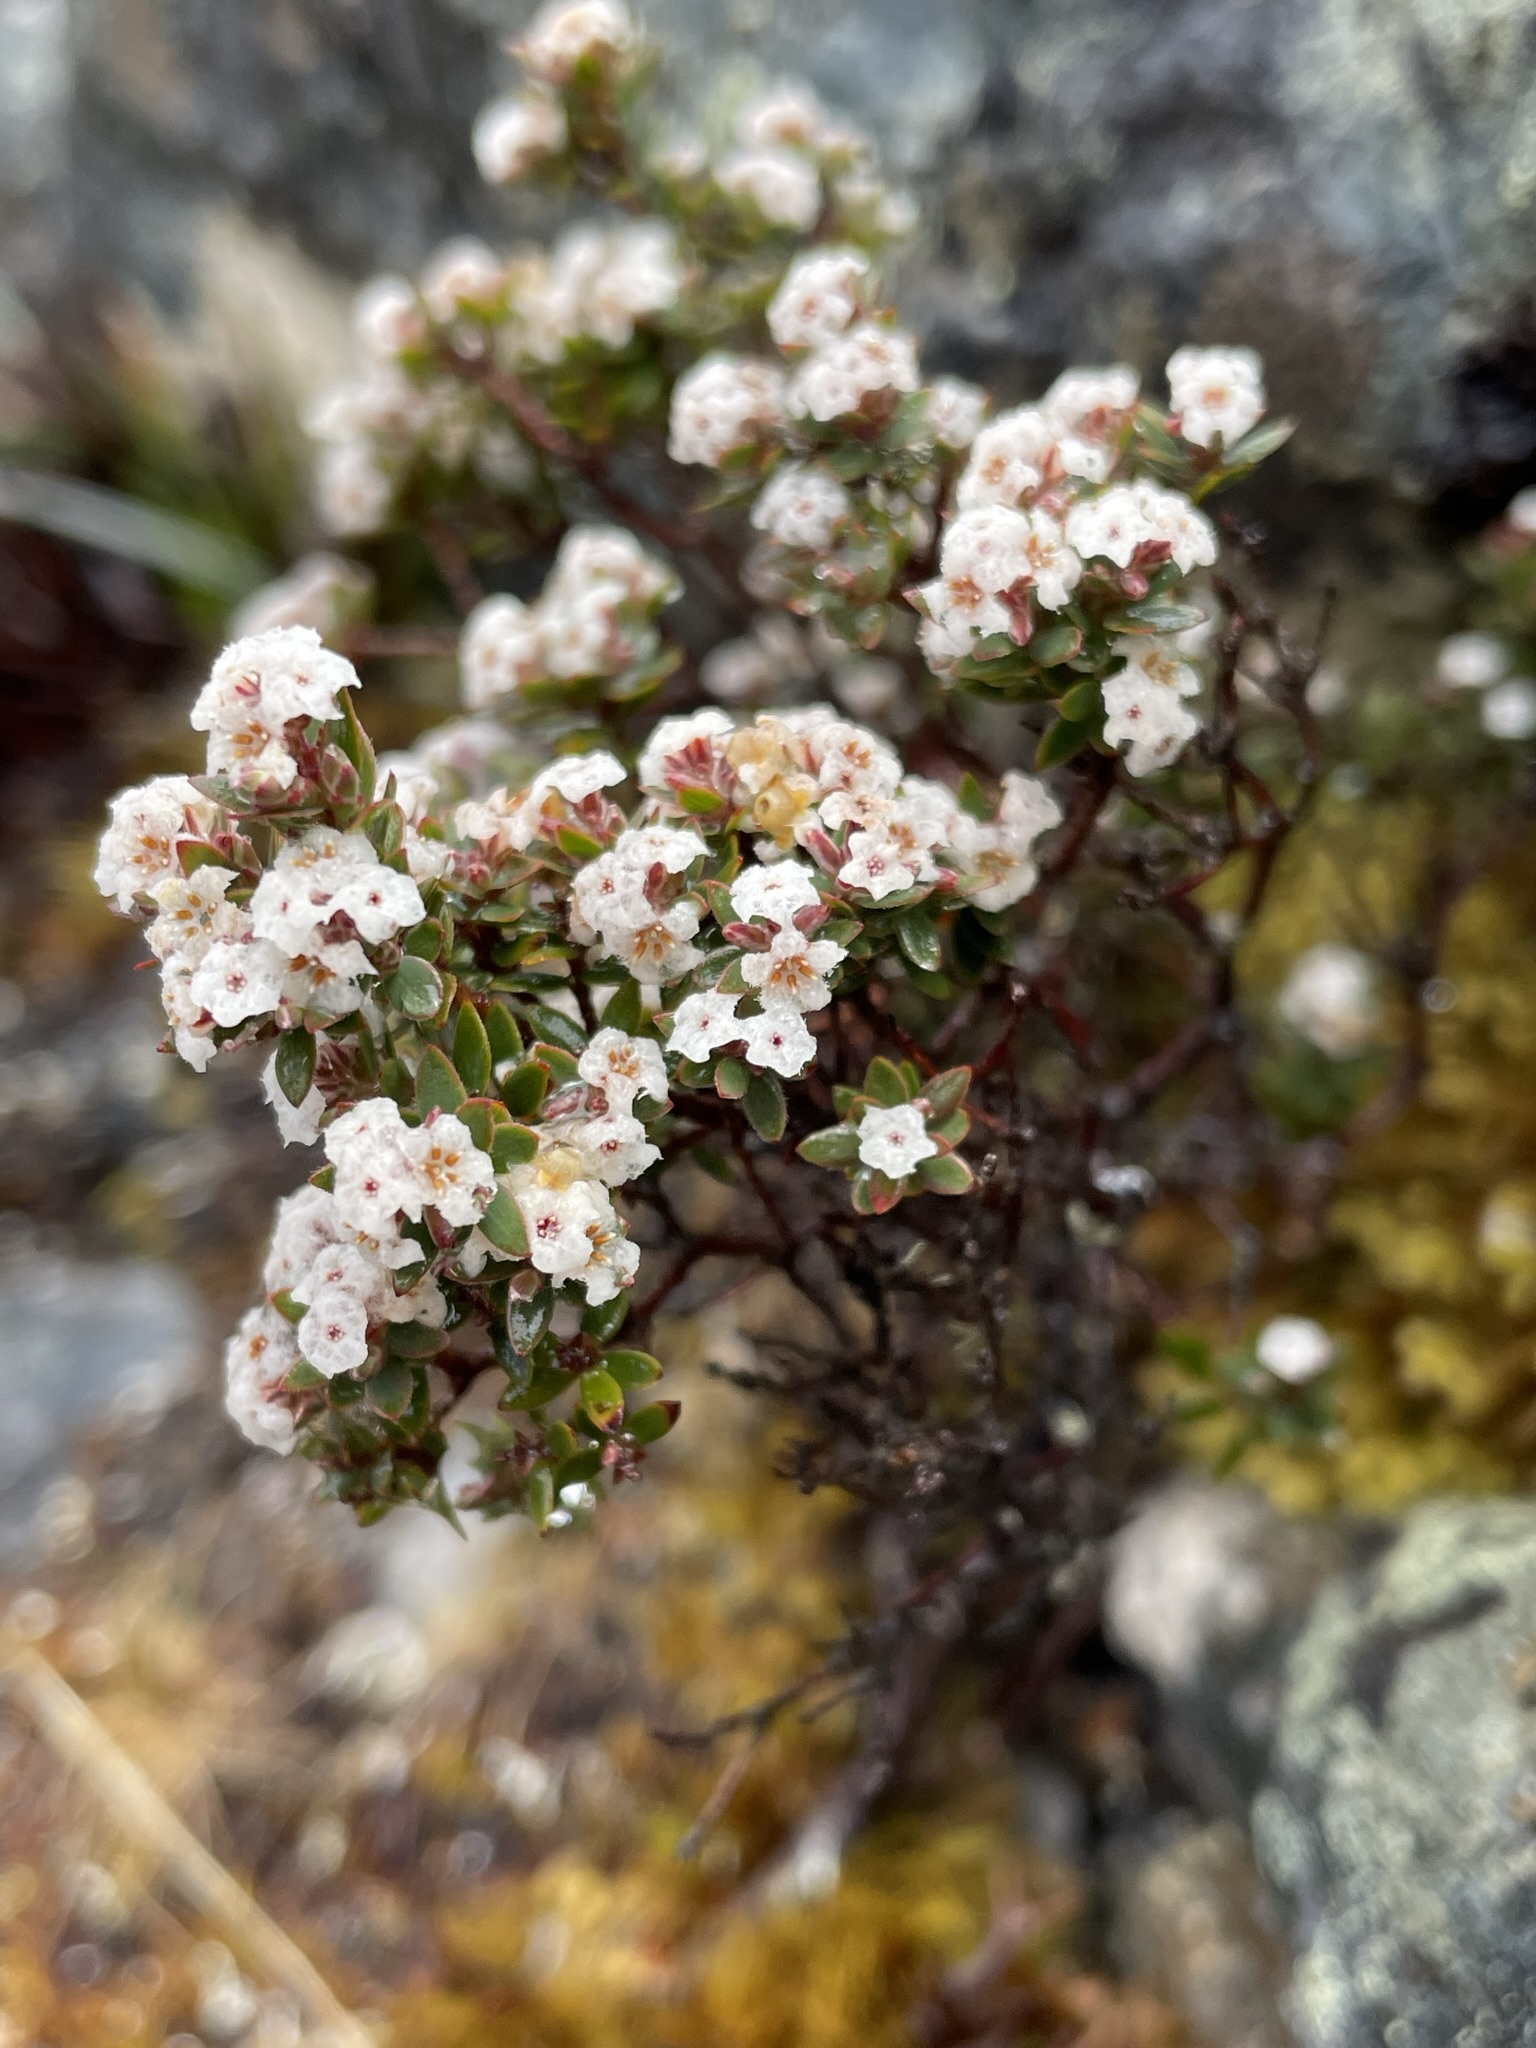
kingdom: Plantae
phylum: Tracheophyta
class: Magnoliopsida
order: Ericales
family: Ericaceae
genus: Epacris
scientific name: Epacris serpyllifolia
